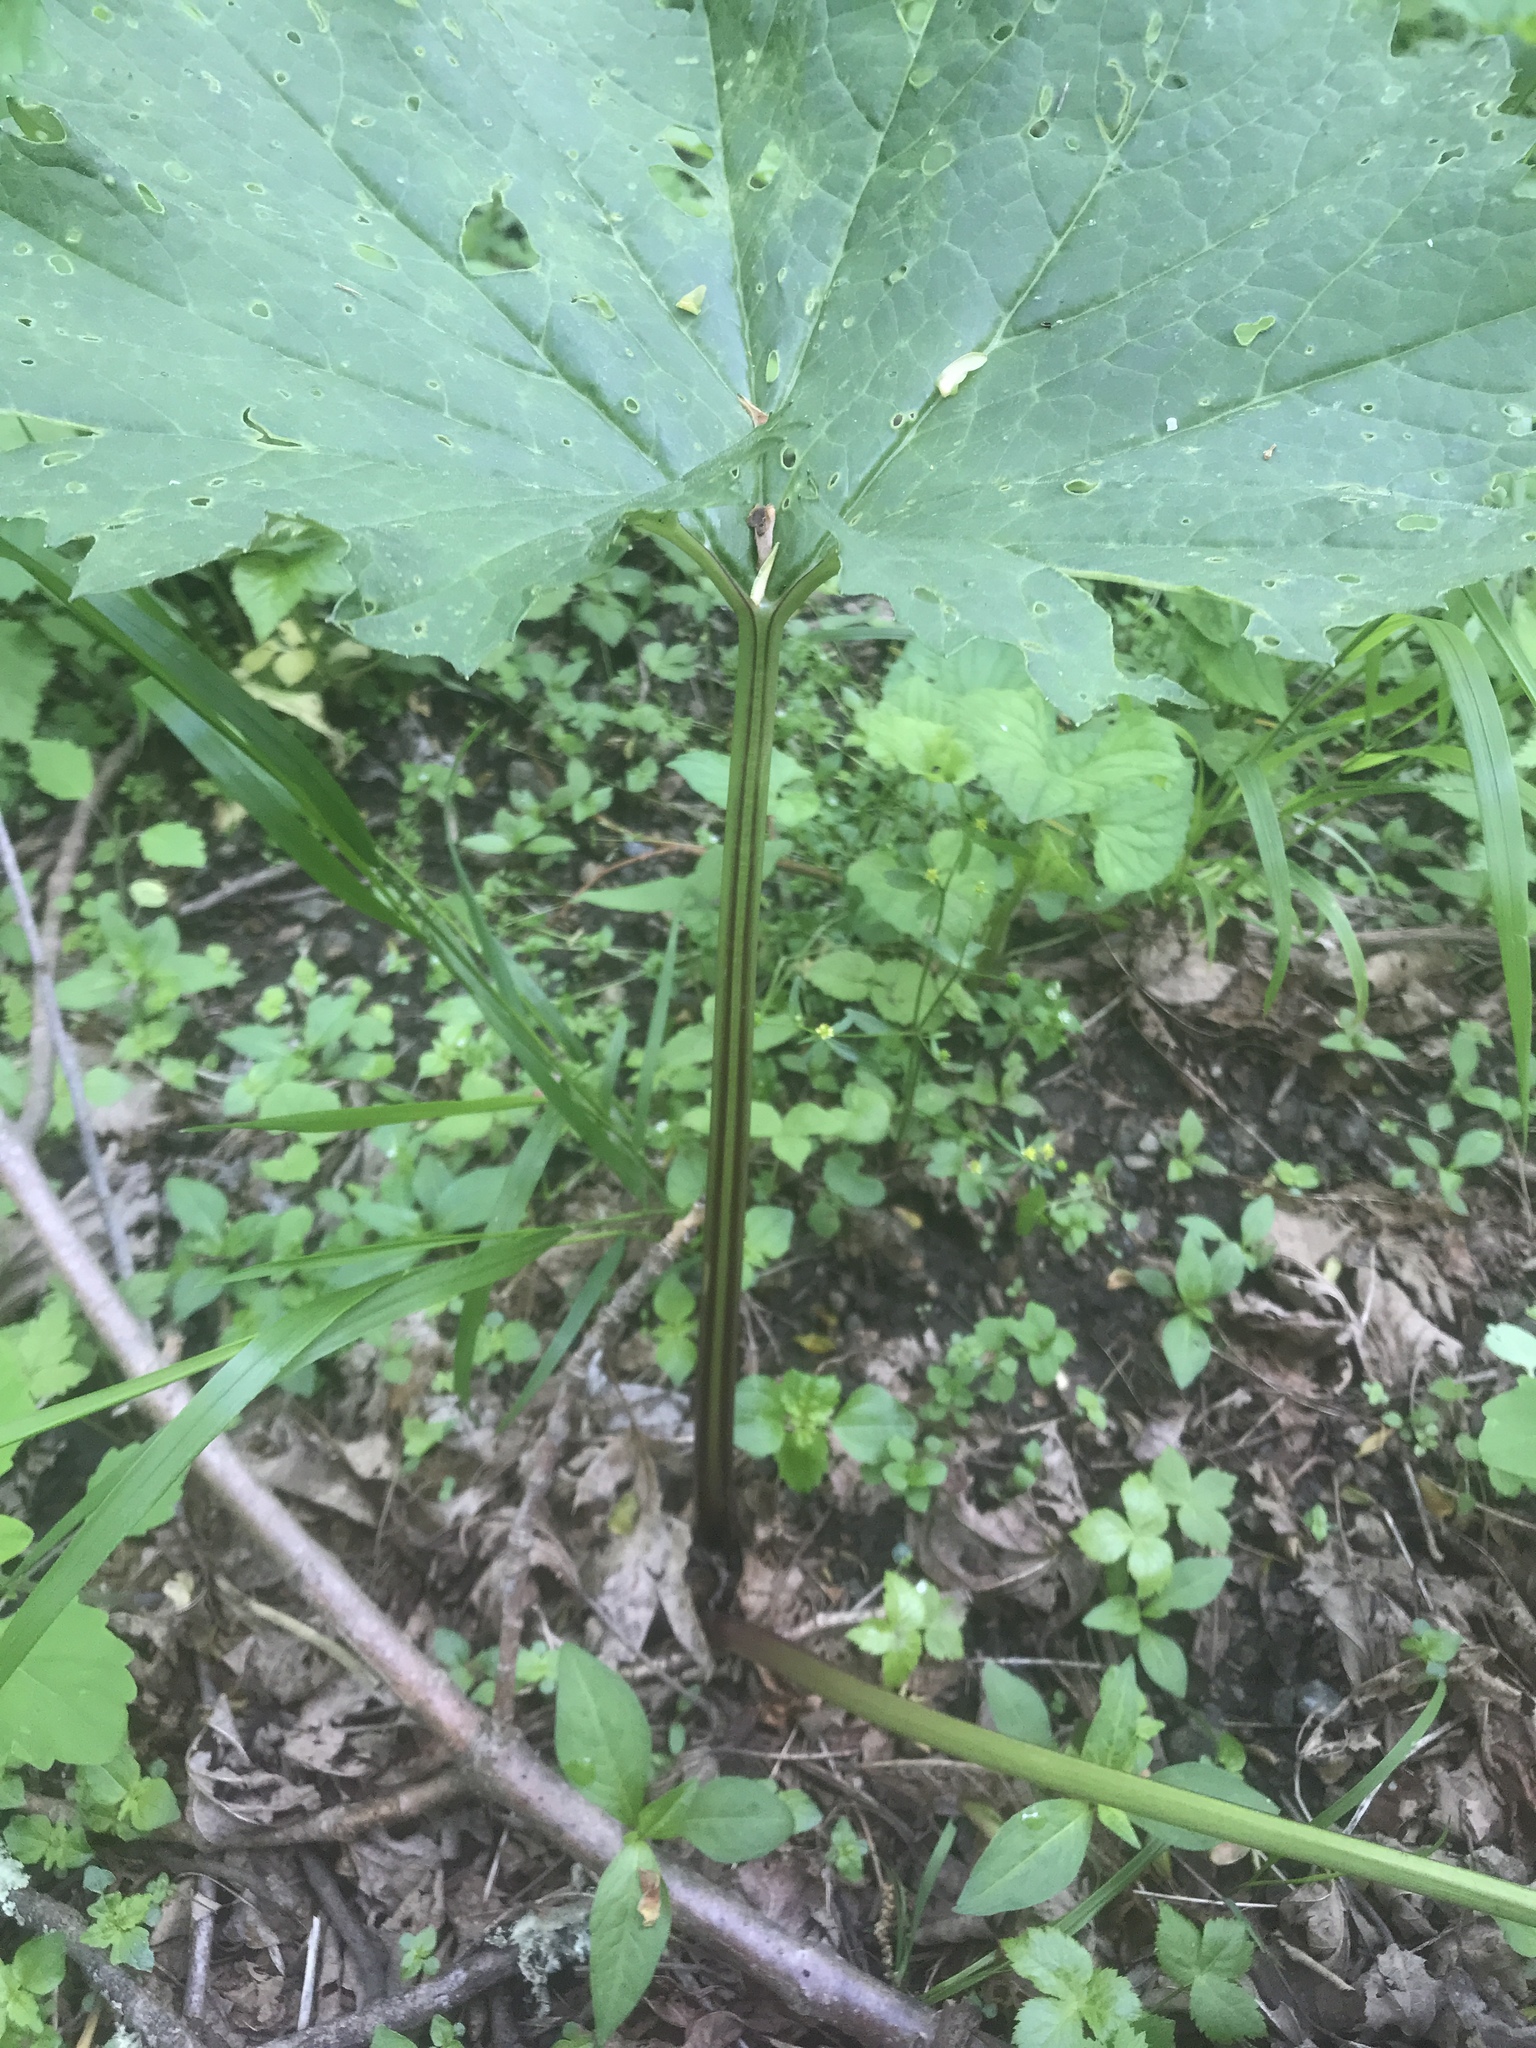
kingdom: Plantae
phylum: Tracheophyta
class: Magnoliopsida
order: Asterales
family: Asteraceae
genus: Arnoglossum
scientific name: Arnoglossum reniforme
